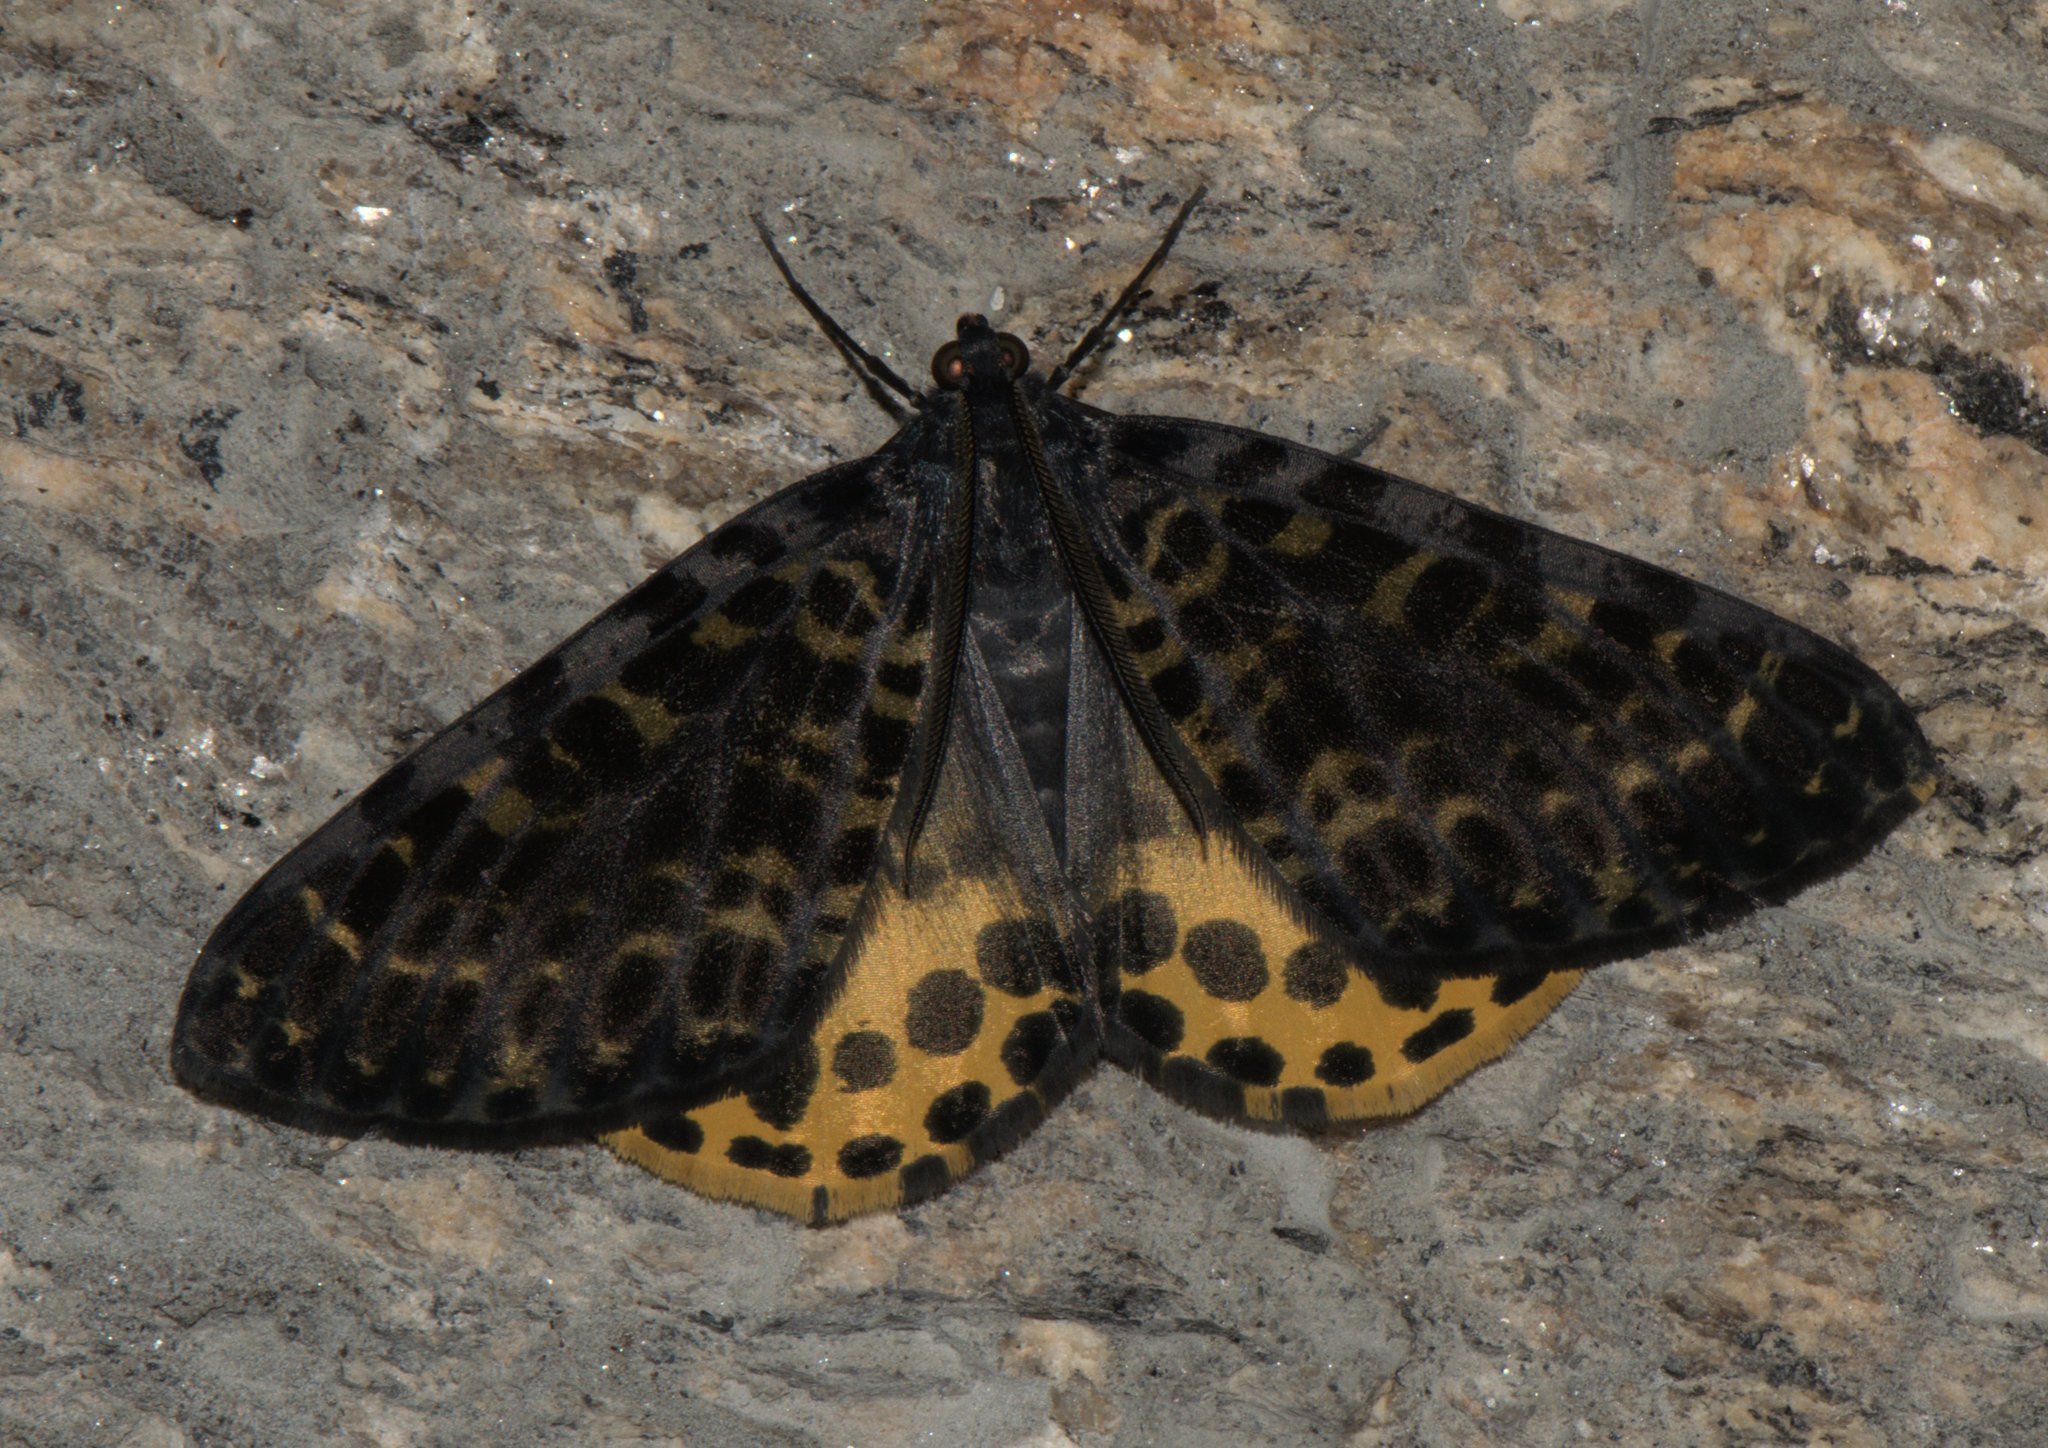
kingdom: Animalia
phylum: Arthropoda
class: Insecta
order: Lepidoptera
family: Geometridae
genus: Arichanna
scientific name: Arichanna flavinigra
